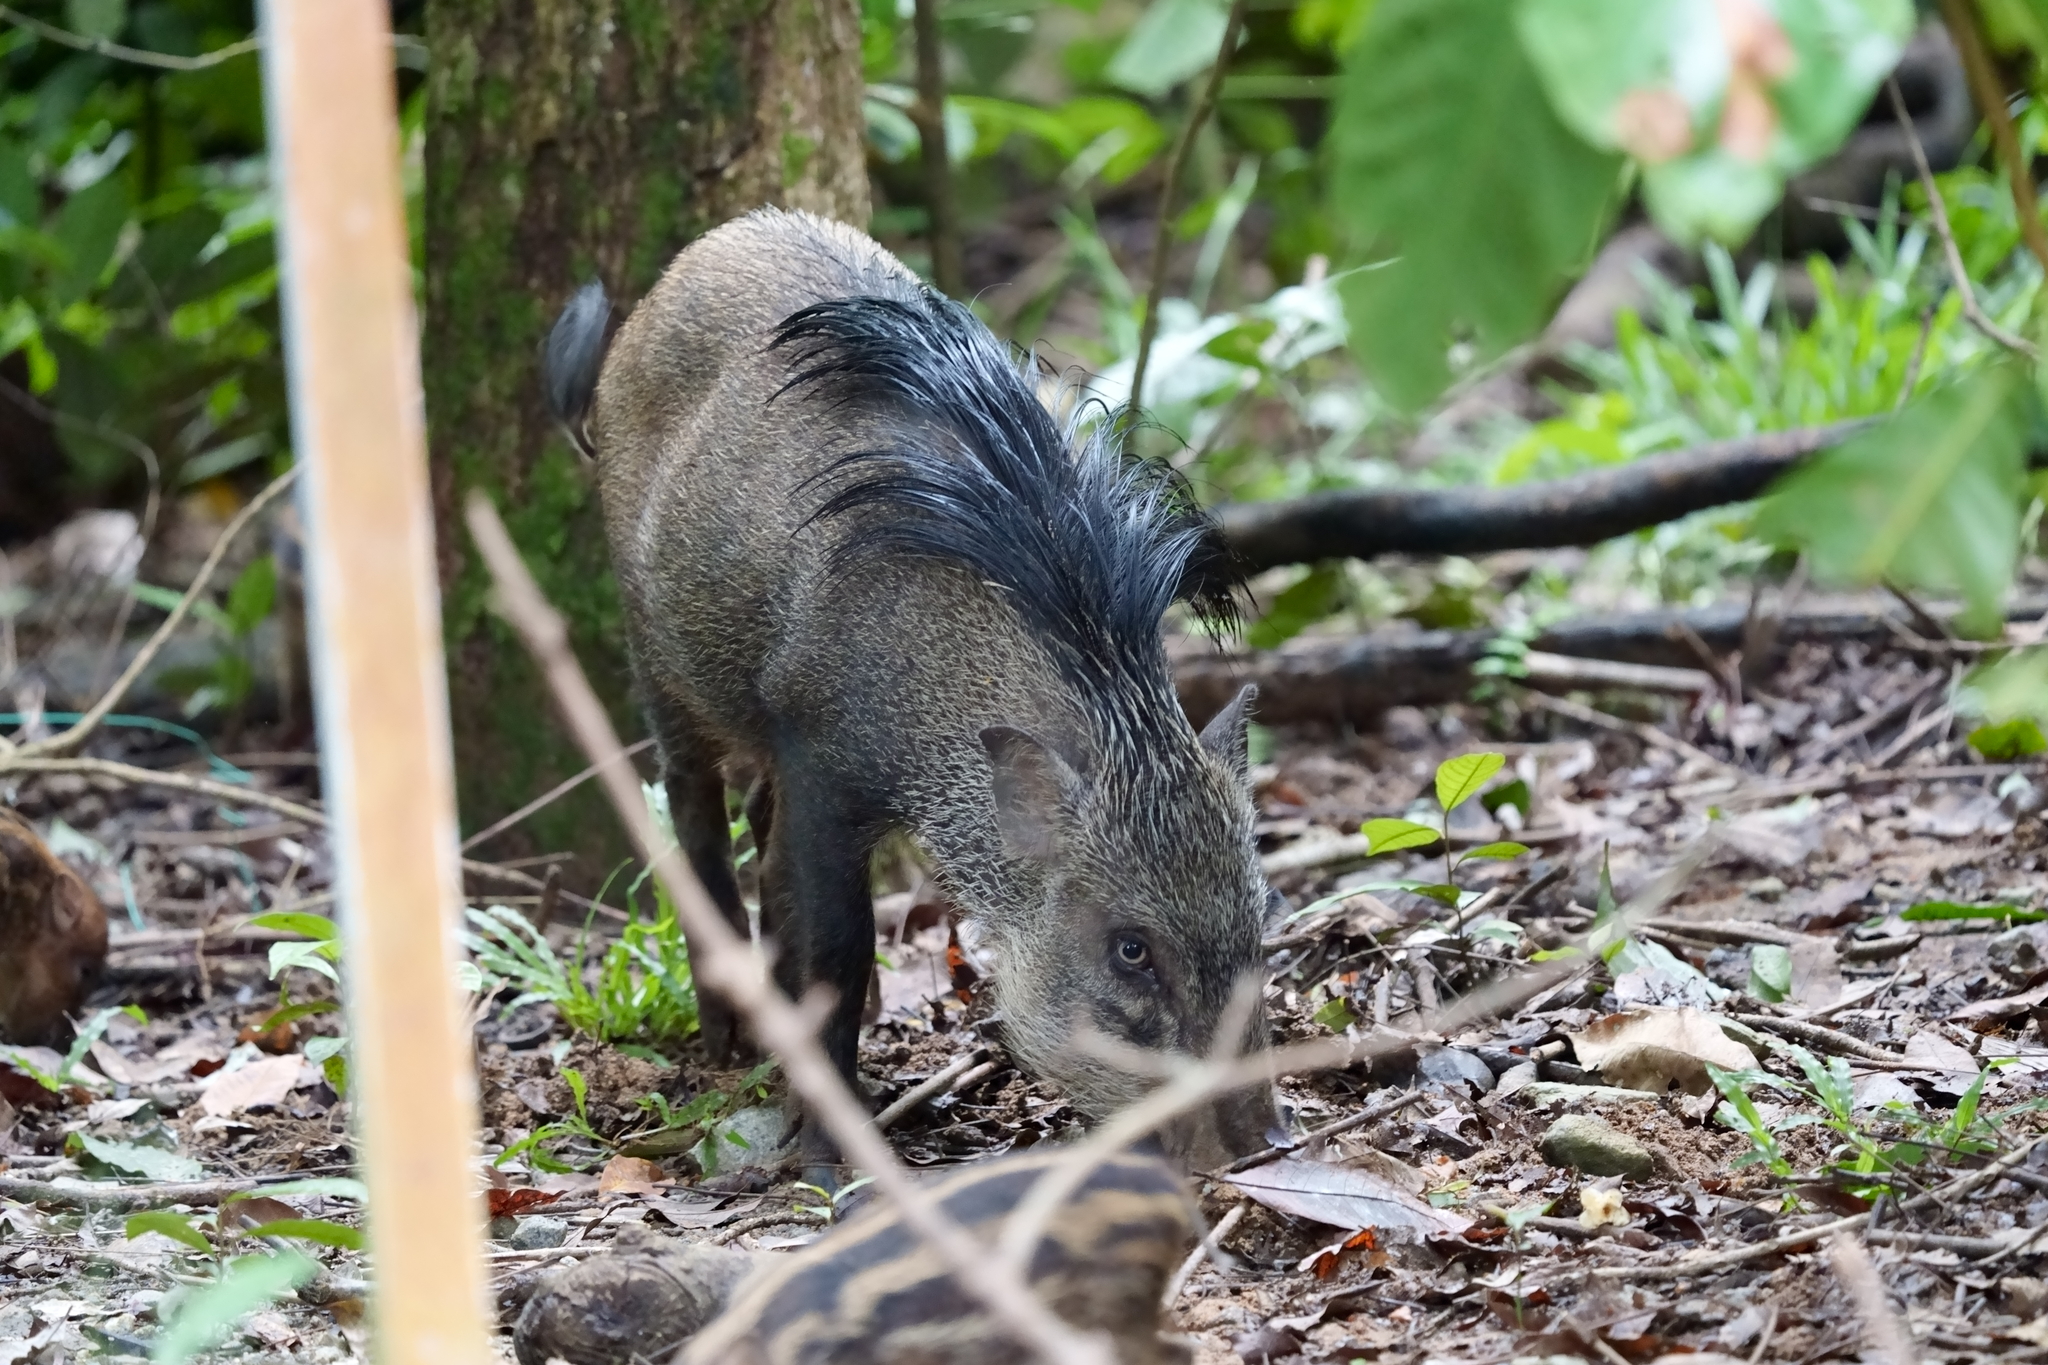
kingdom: Animalia
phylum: Chordata
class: Mammalia
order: Artiodactyla
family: Suidae
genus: Sus
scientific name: Sus scrofa
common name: Wild boar
